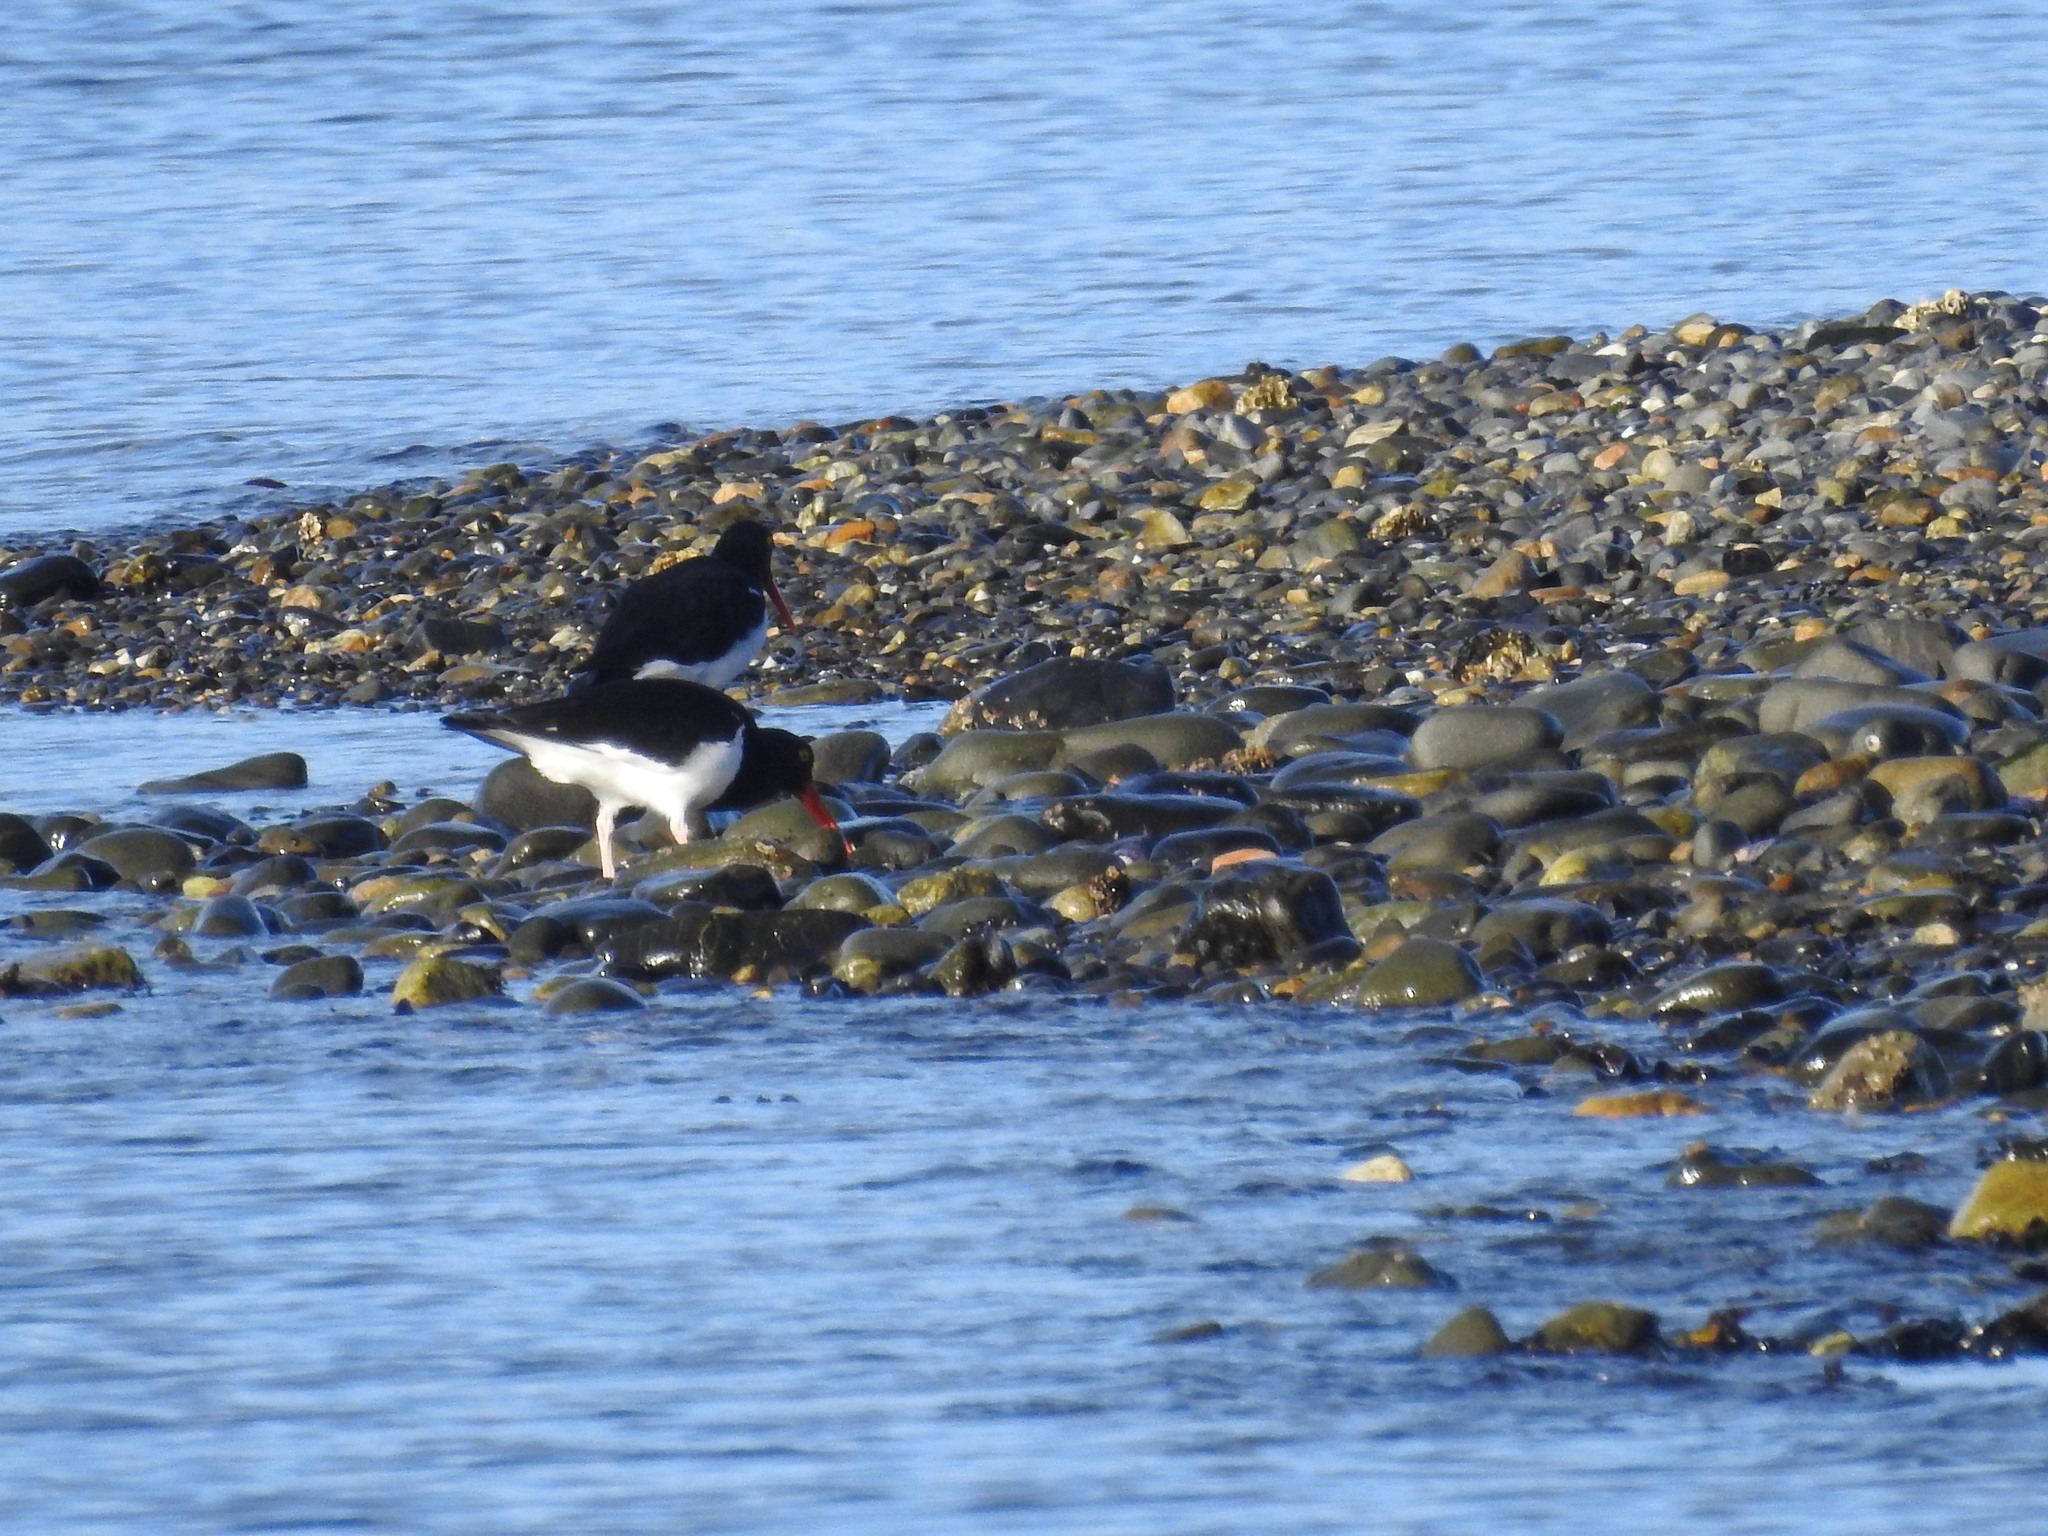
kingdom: Animalia
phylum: Chordata
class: Aves
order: Charadriiformes
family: Haematopodidae
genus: Haematopus
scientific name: Haematopus leucopodus
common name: Magellanic oystercatcher
